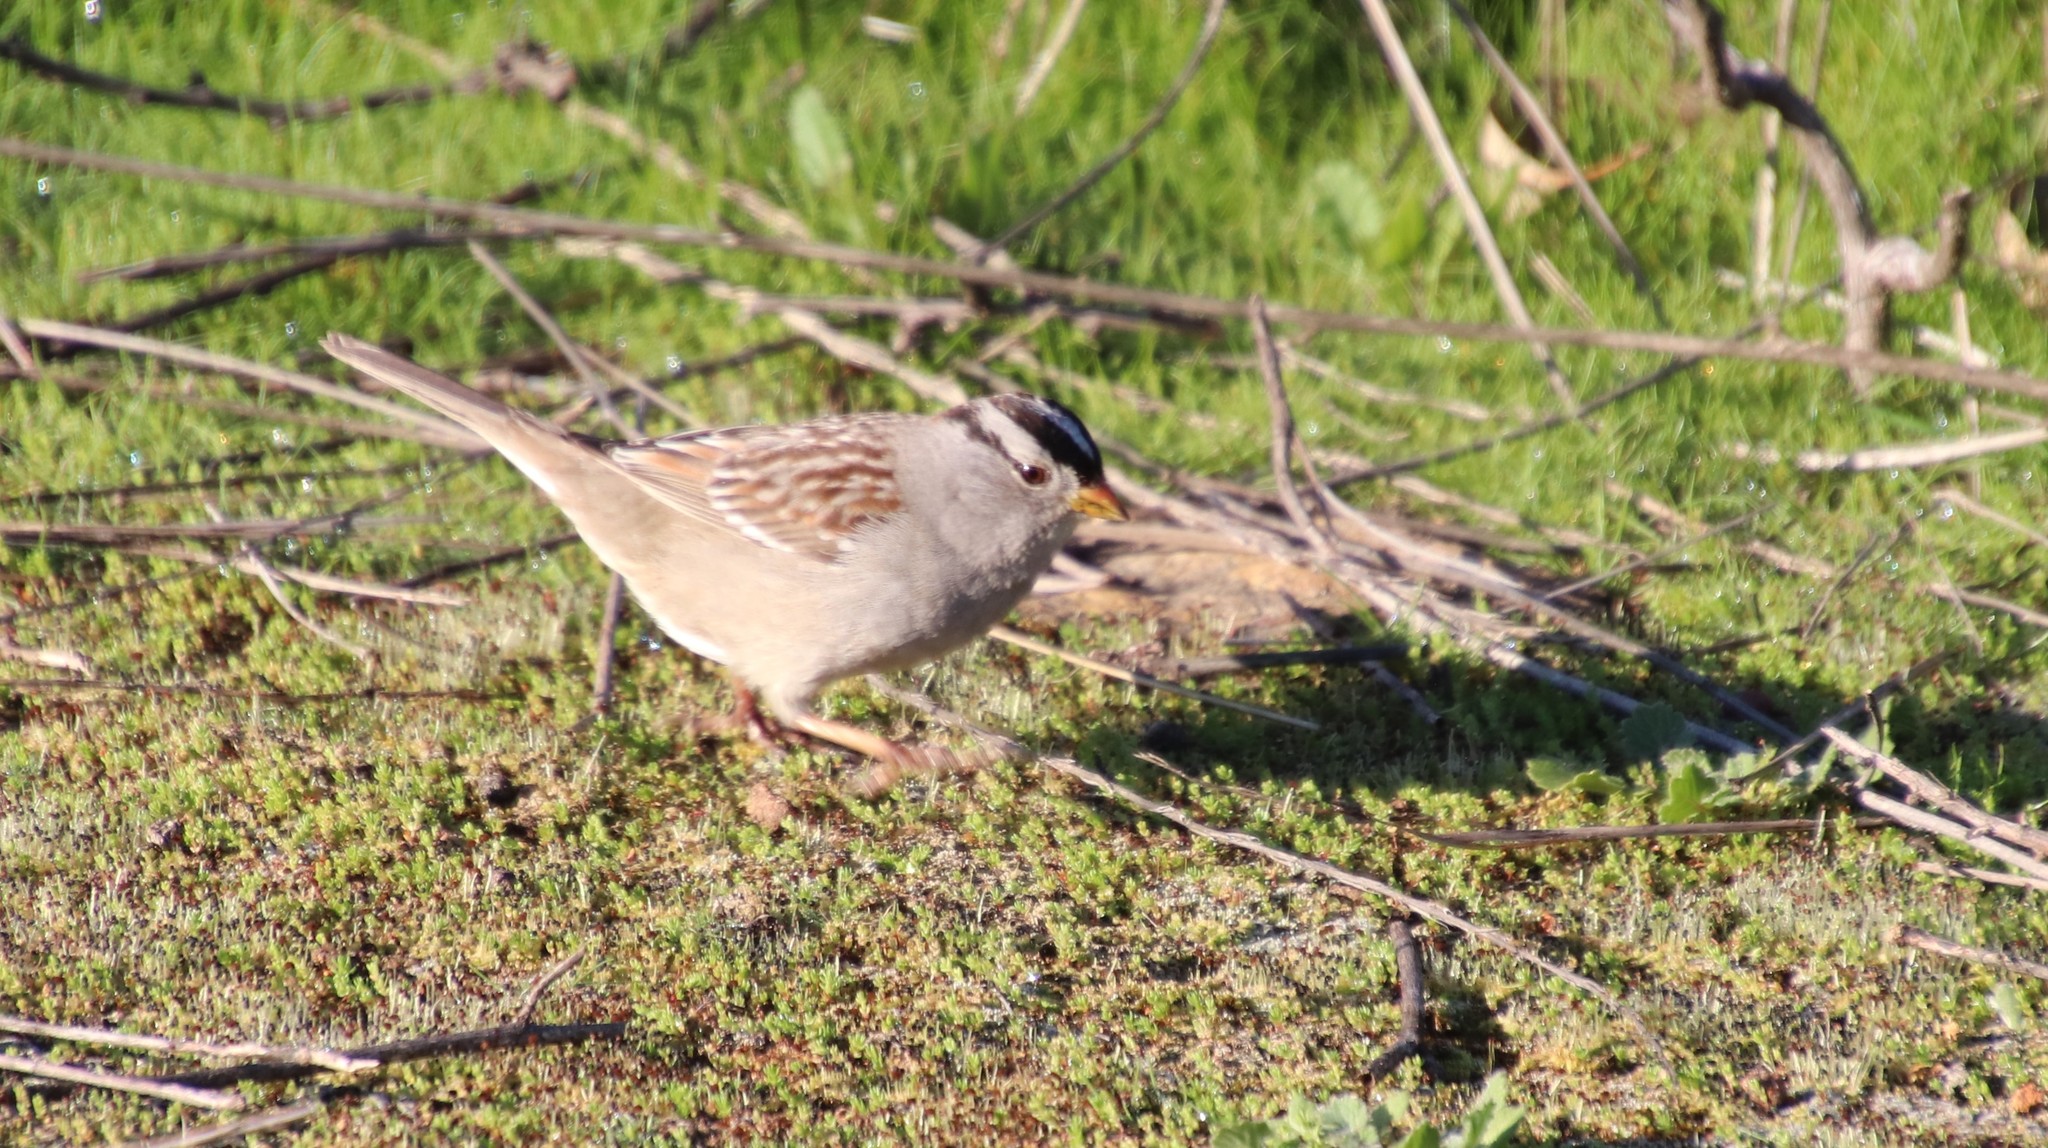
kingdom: Animalia
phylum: Chordata
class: Aves
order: Passeriformes
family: Passerellidae
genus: Zonotrichia
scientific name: Zonotrichia leucophrys
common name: White-crowned sparrow
